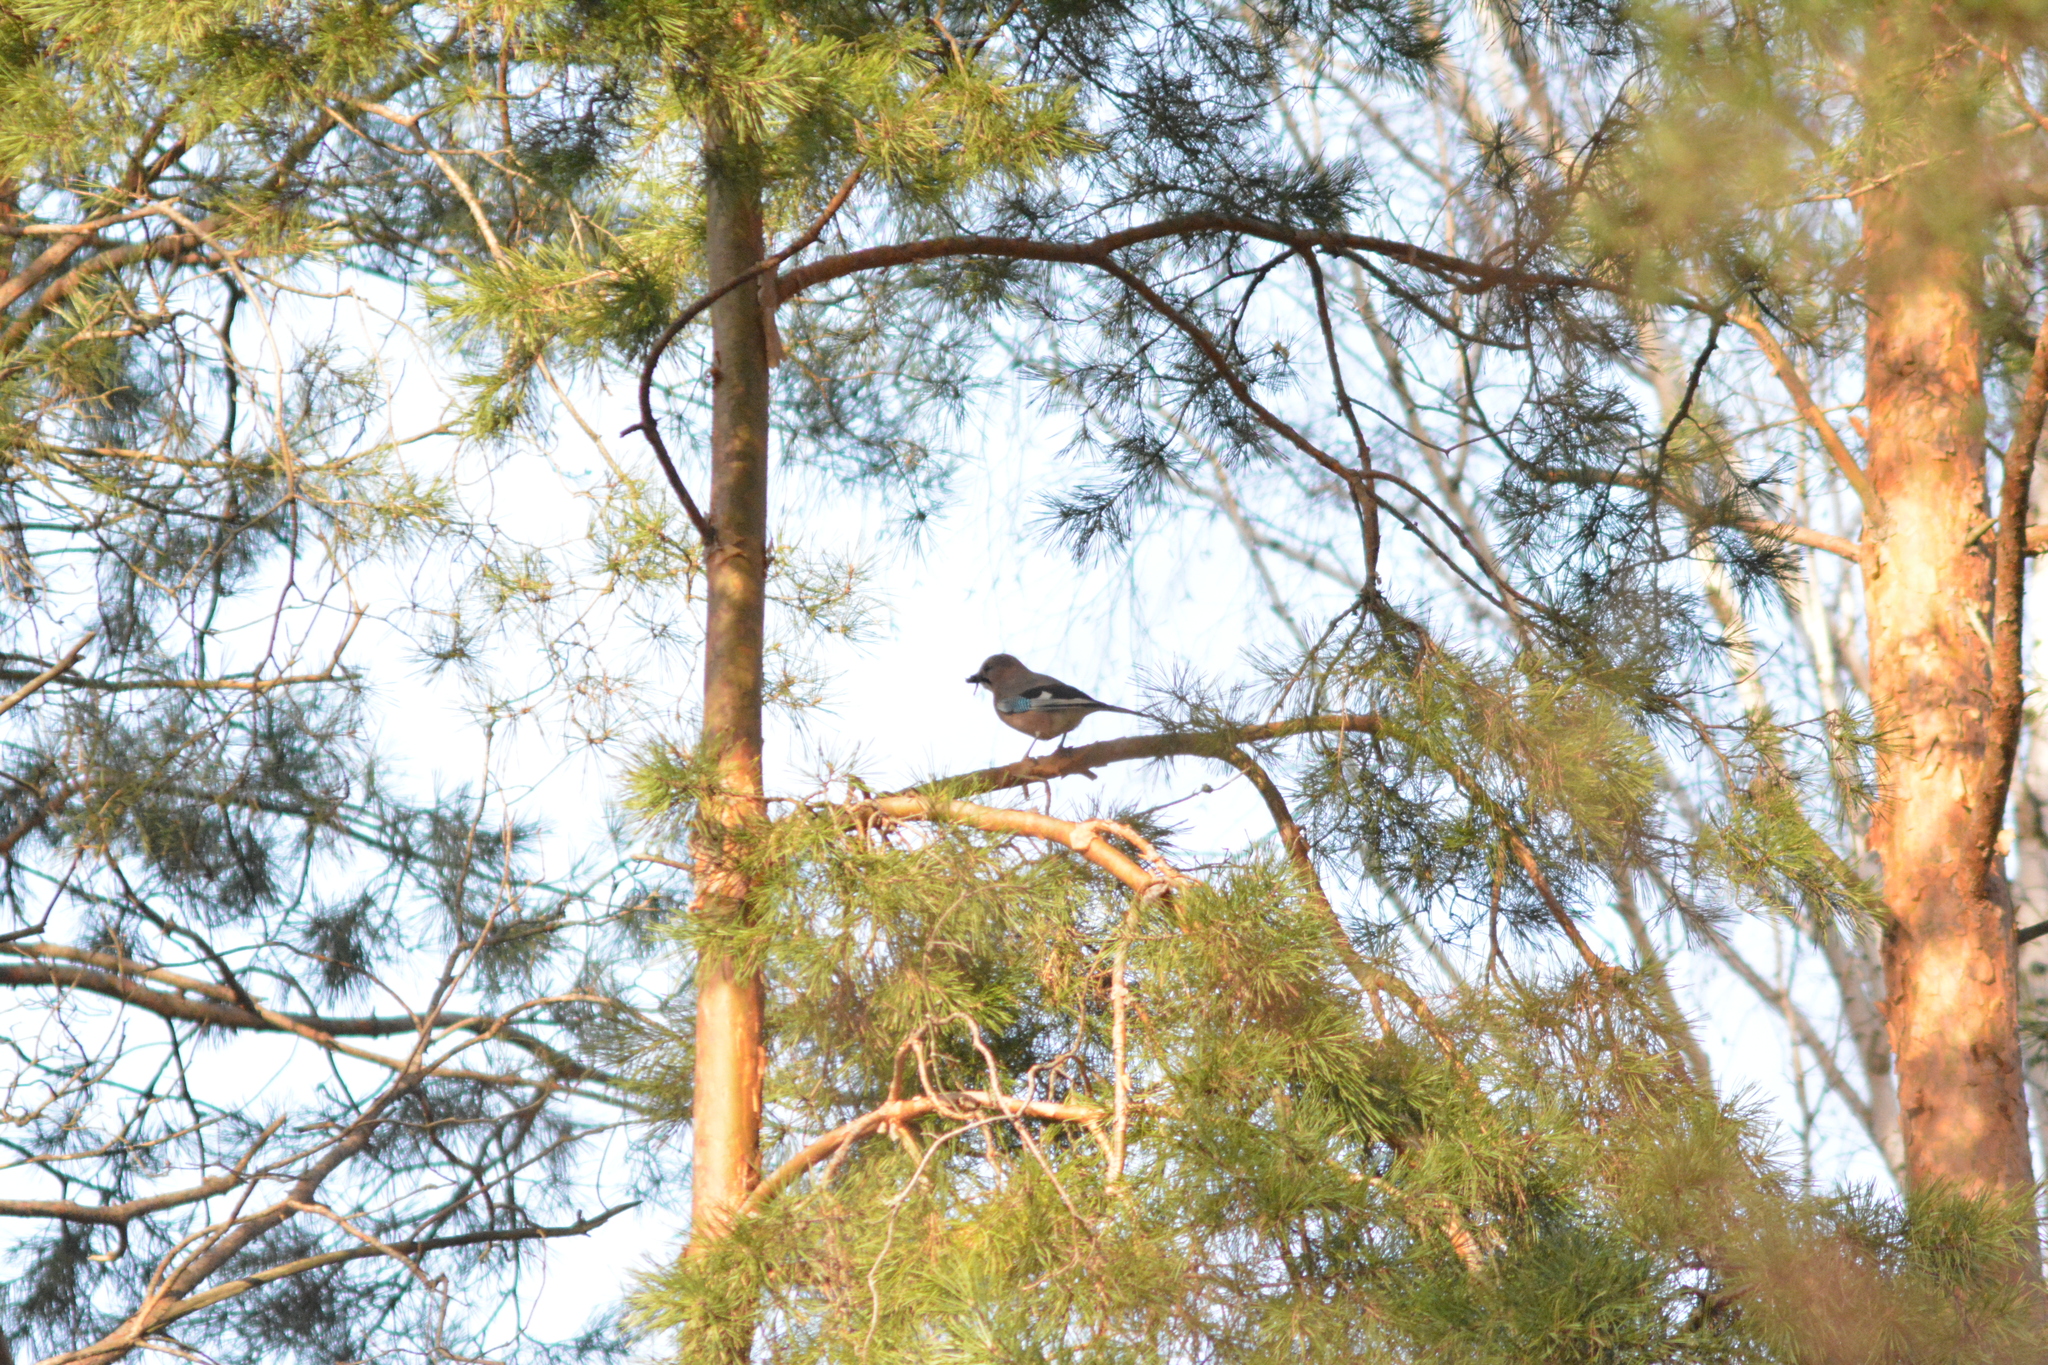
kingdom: Animalia
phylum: Chordata
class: Aves
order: Passeriformes
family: Corvidae
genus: Garrulus
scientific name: Garrulus glandarius
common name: Eurasian jay
